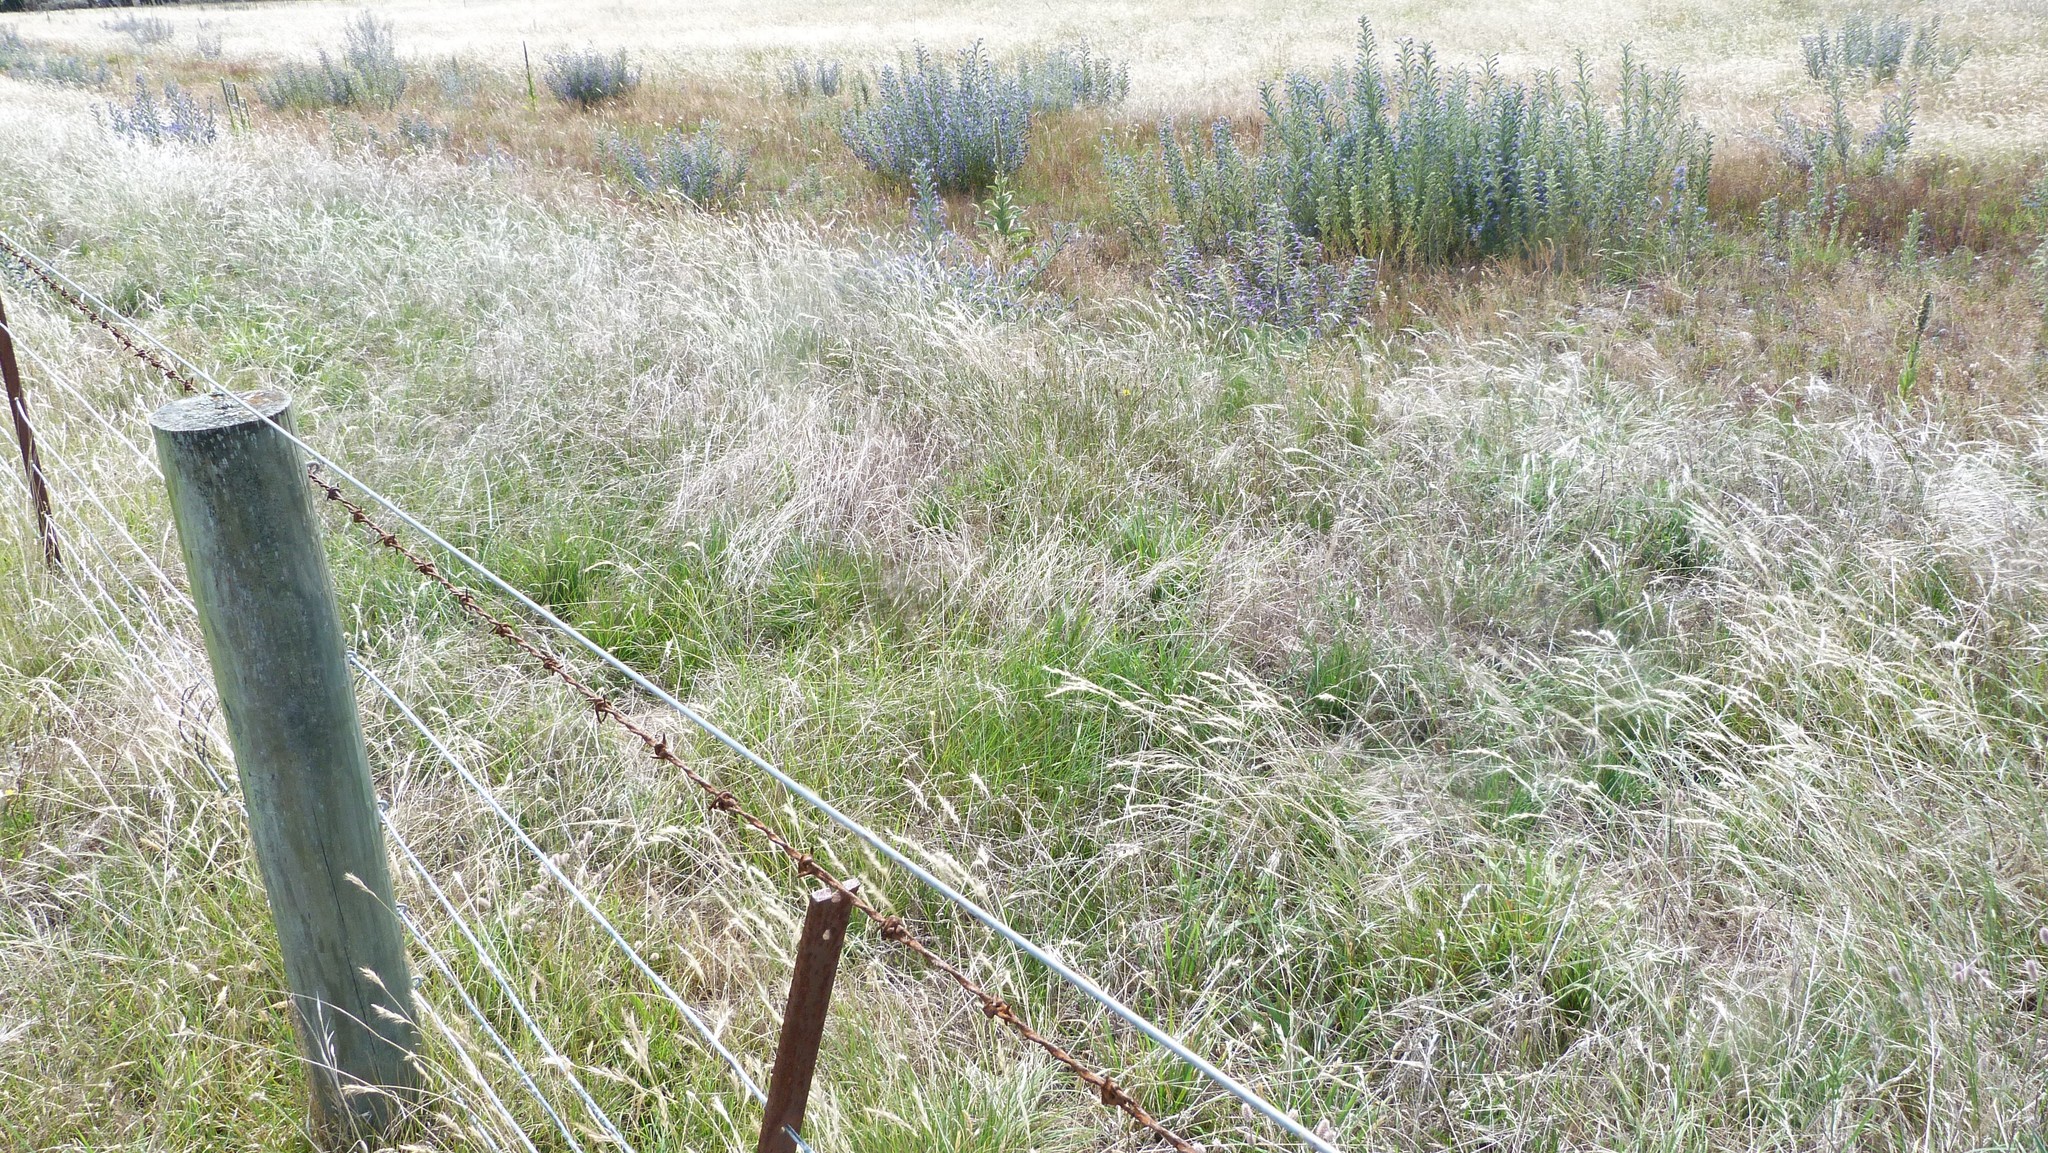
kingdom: Plantae
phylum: Tracheophyta
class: Magnoliopsida
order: Boraginales
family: Boraginaceae
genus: Echium
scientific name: Echium vulgare
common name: Common viper's bugloss
